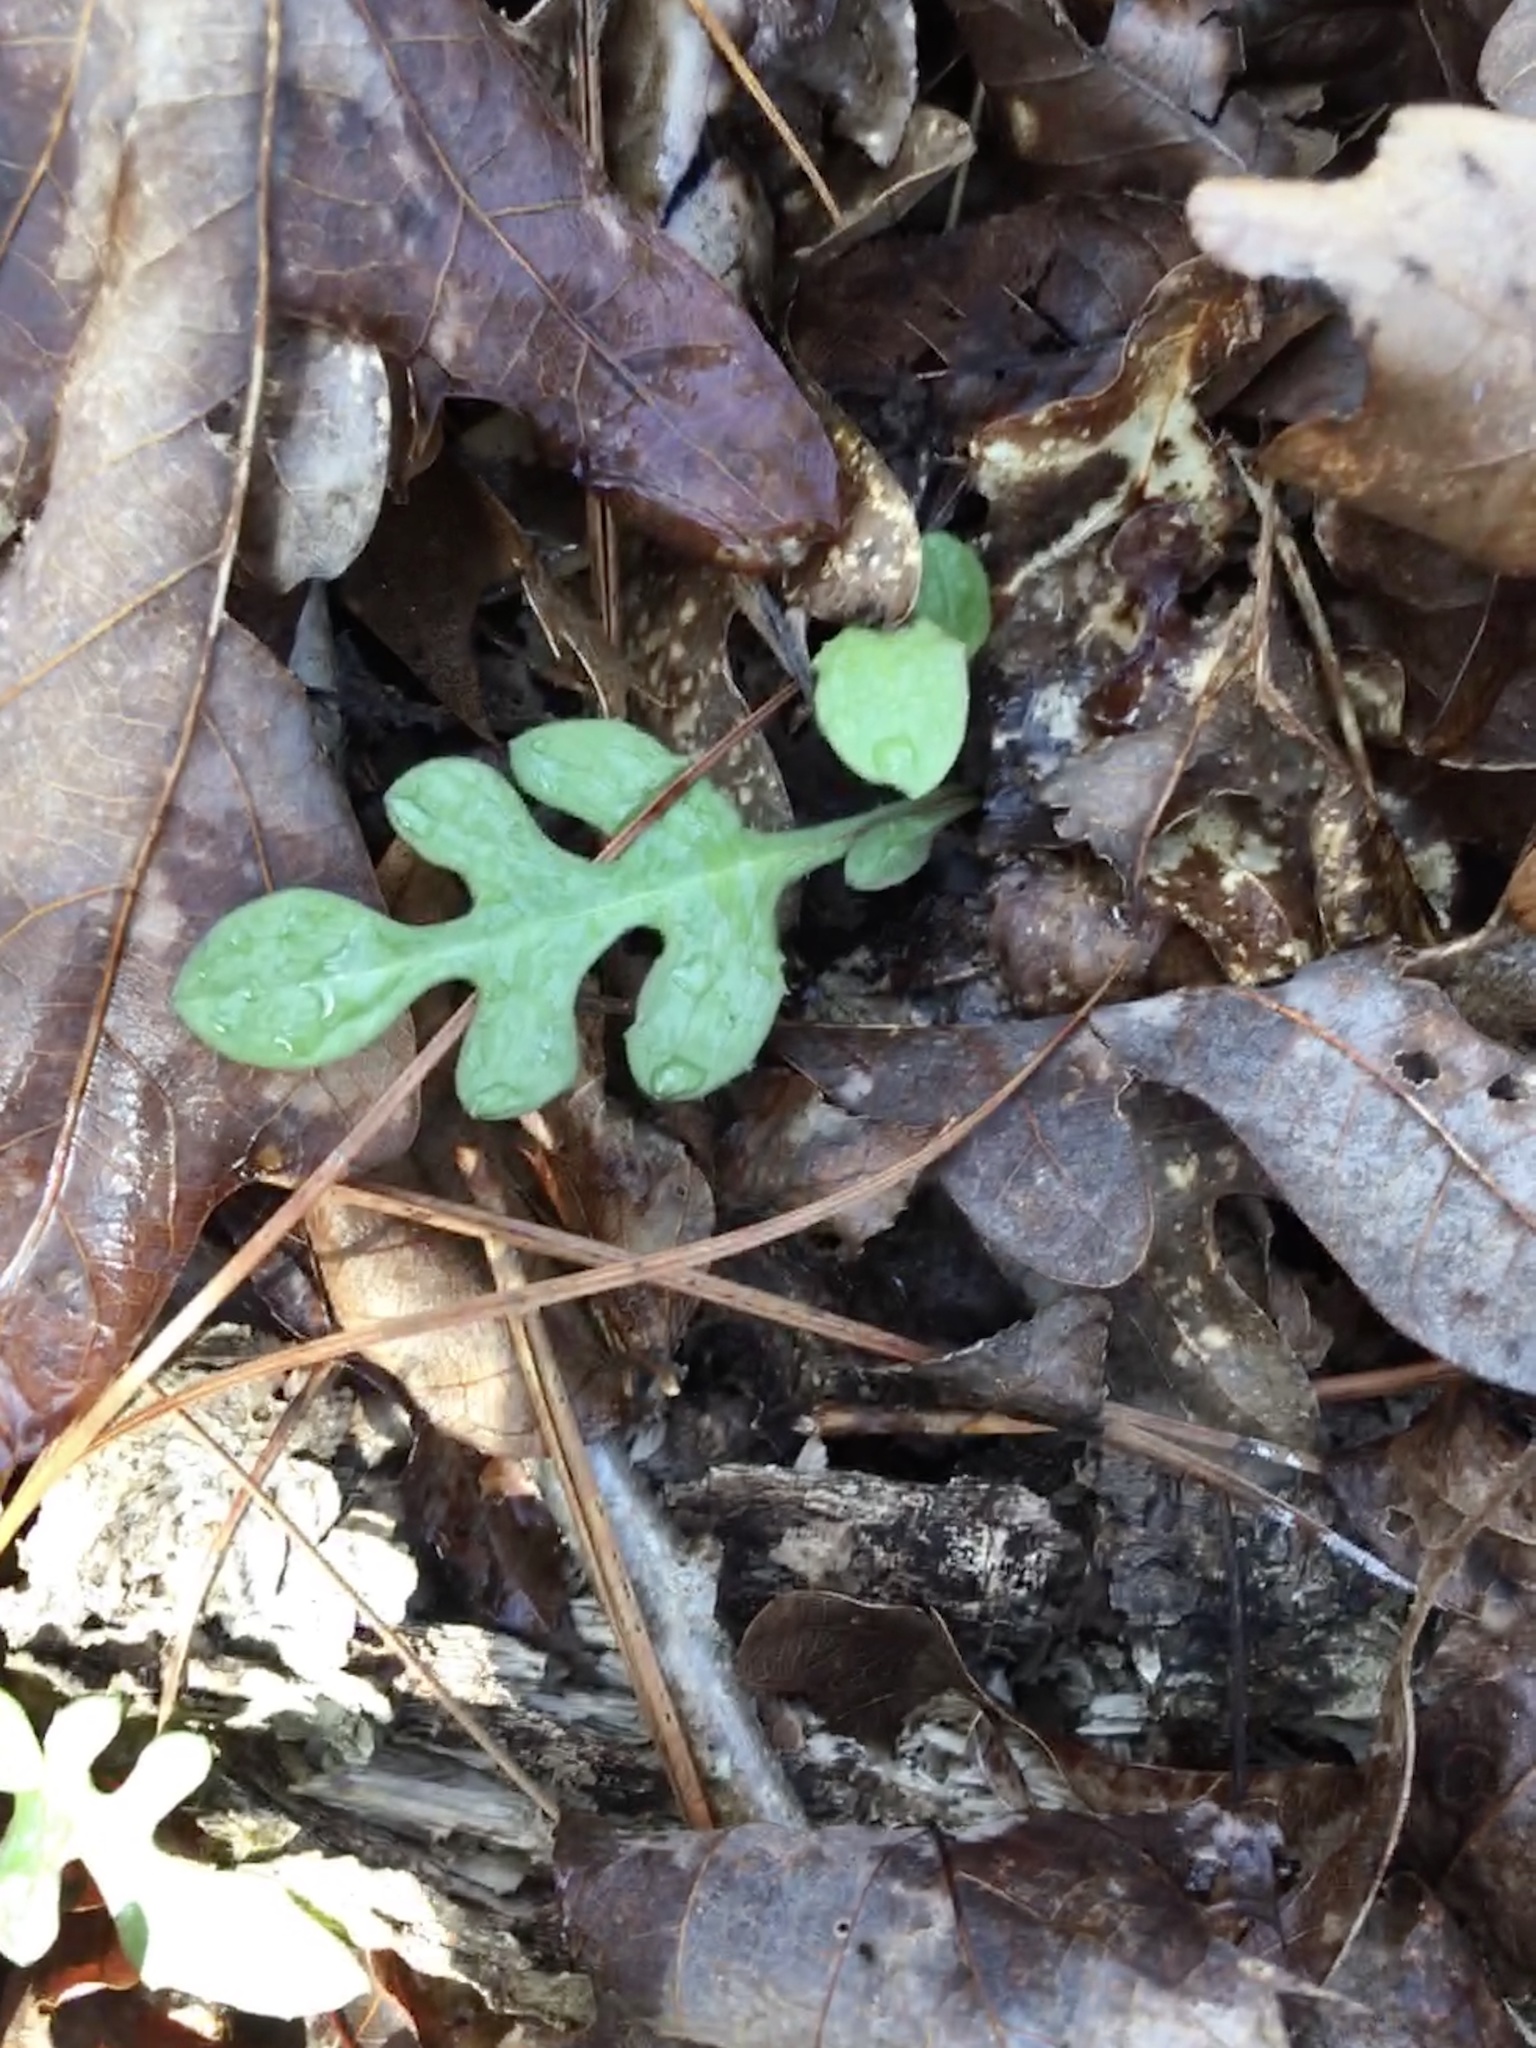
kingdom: Plantae
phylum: Tracheophyta
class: Magnoliopsida
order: Asterales
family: Asteraceae
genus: Nabalus
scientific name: Nabalus trifoliolatus
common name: Gall-of-the-earth
